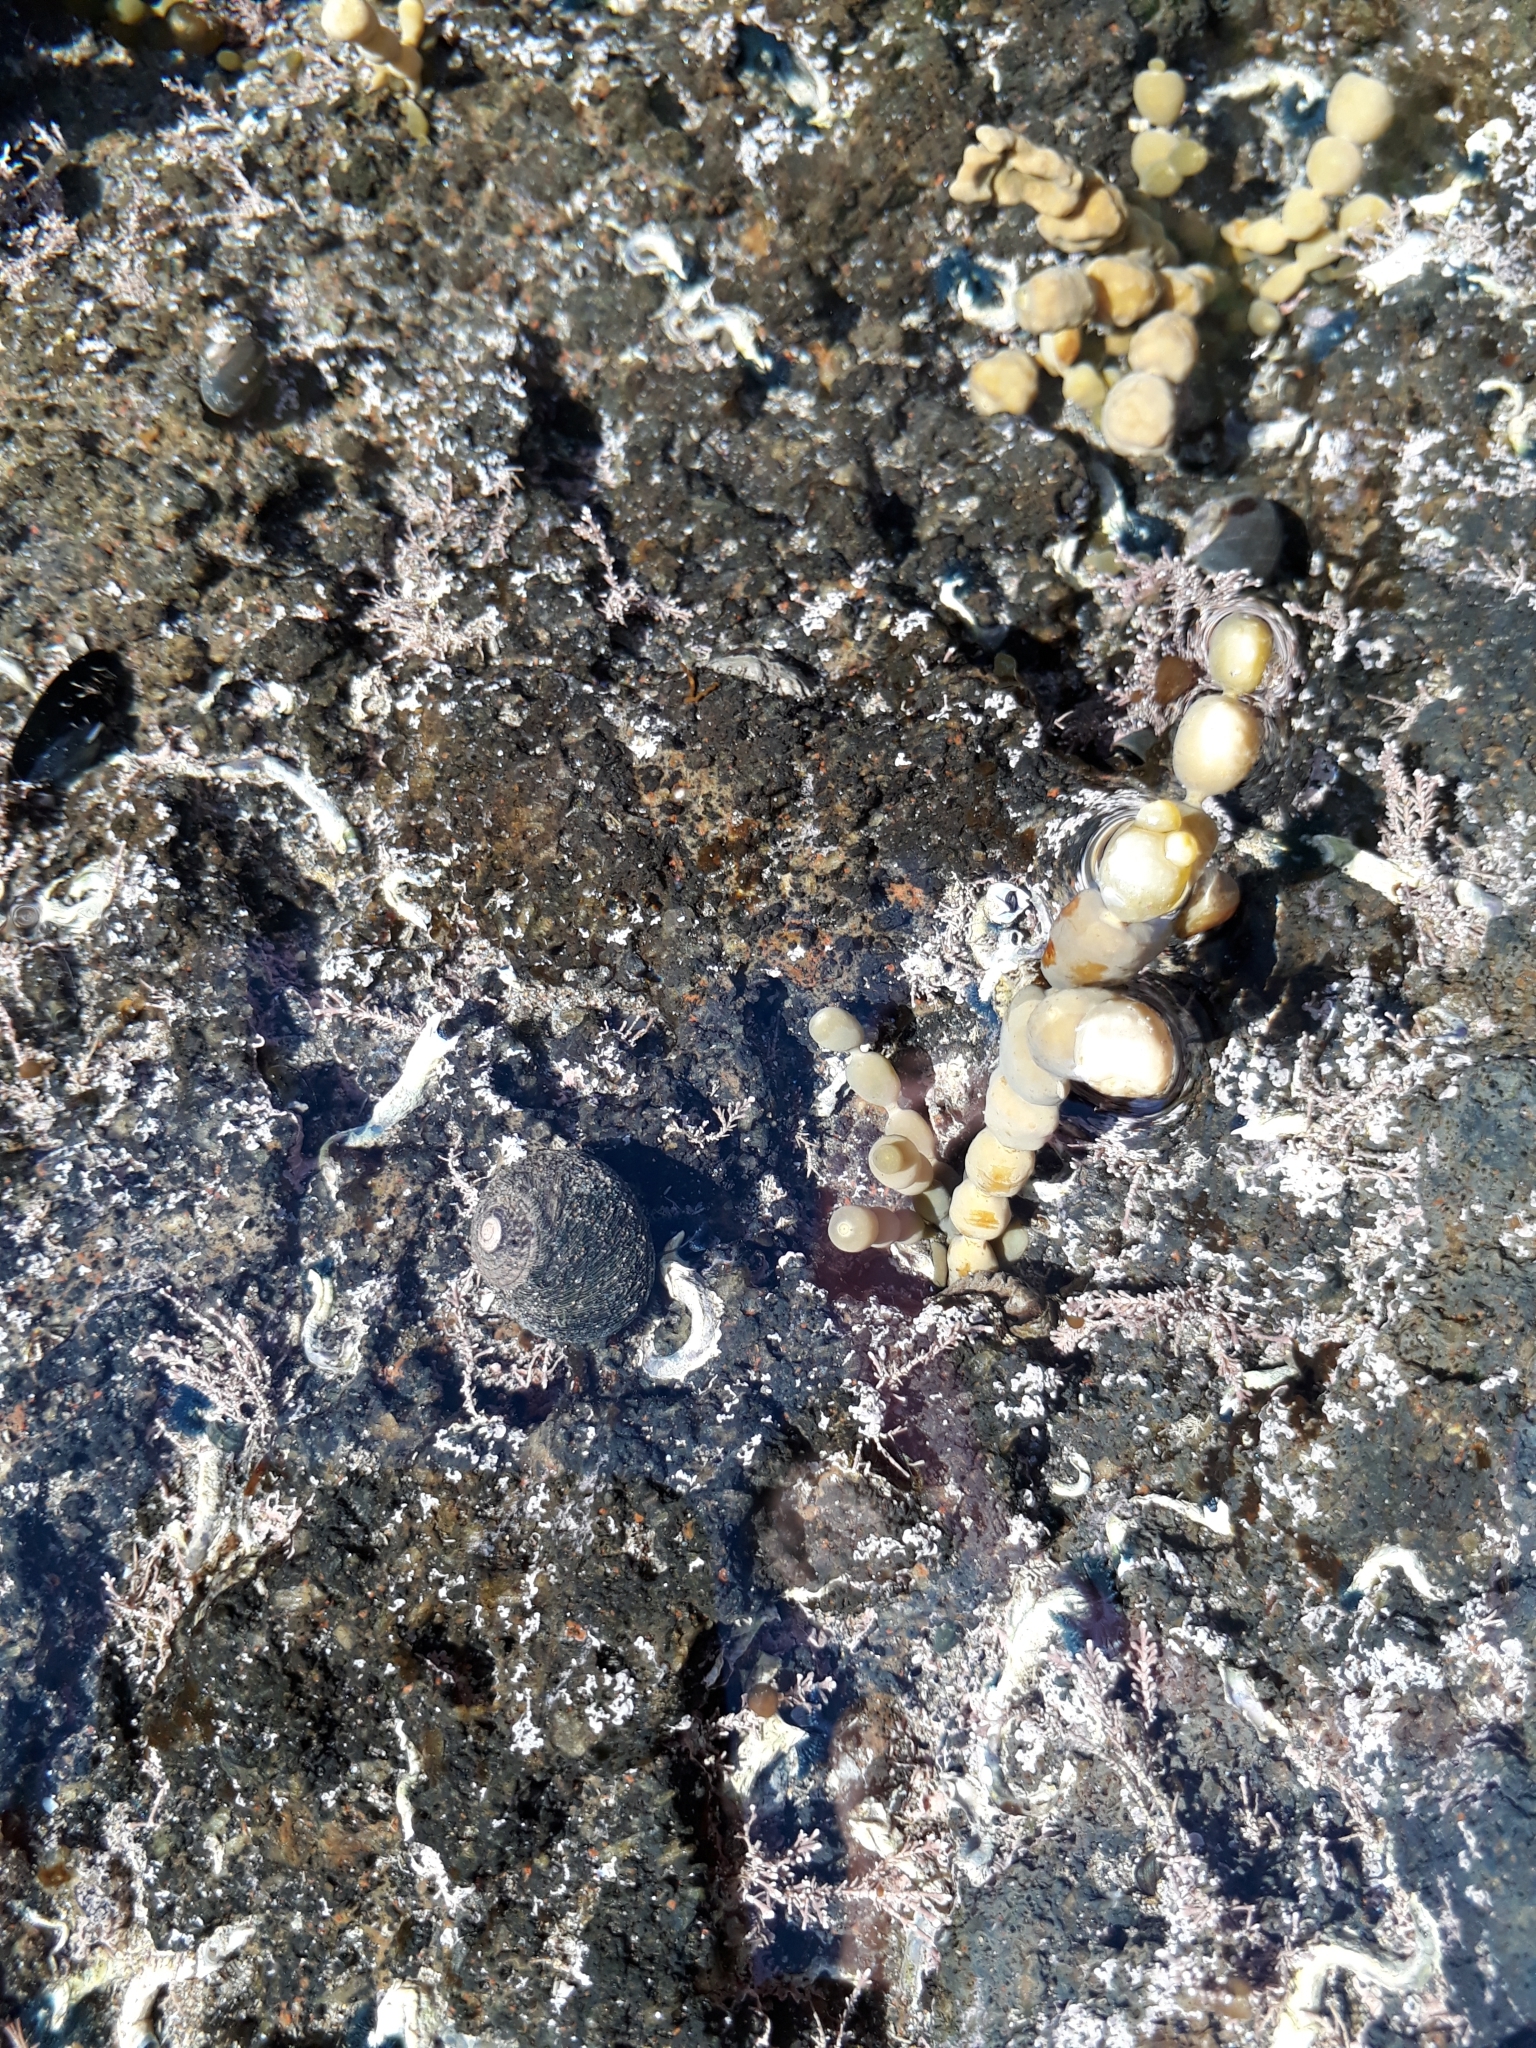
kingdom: Animalia
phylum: Mollusca
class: Gastropoda
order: Trochida
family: Trochidae
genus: Diloma
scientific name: Diloma aethiops
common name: Scorched monodont
